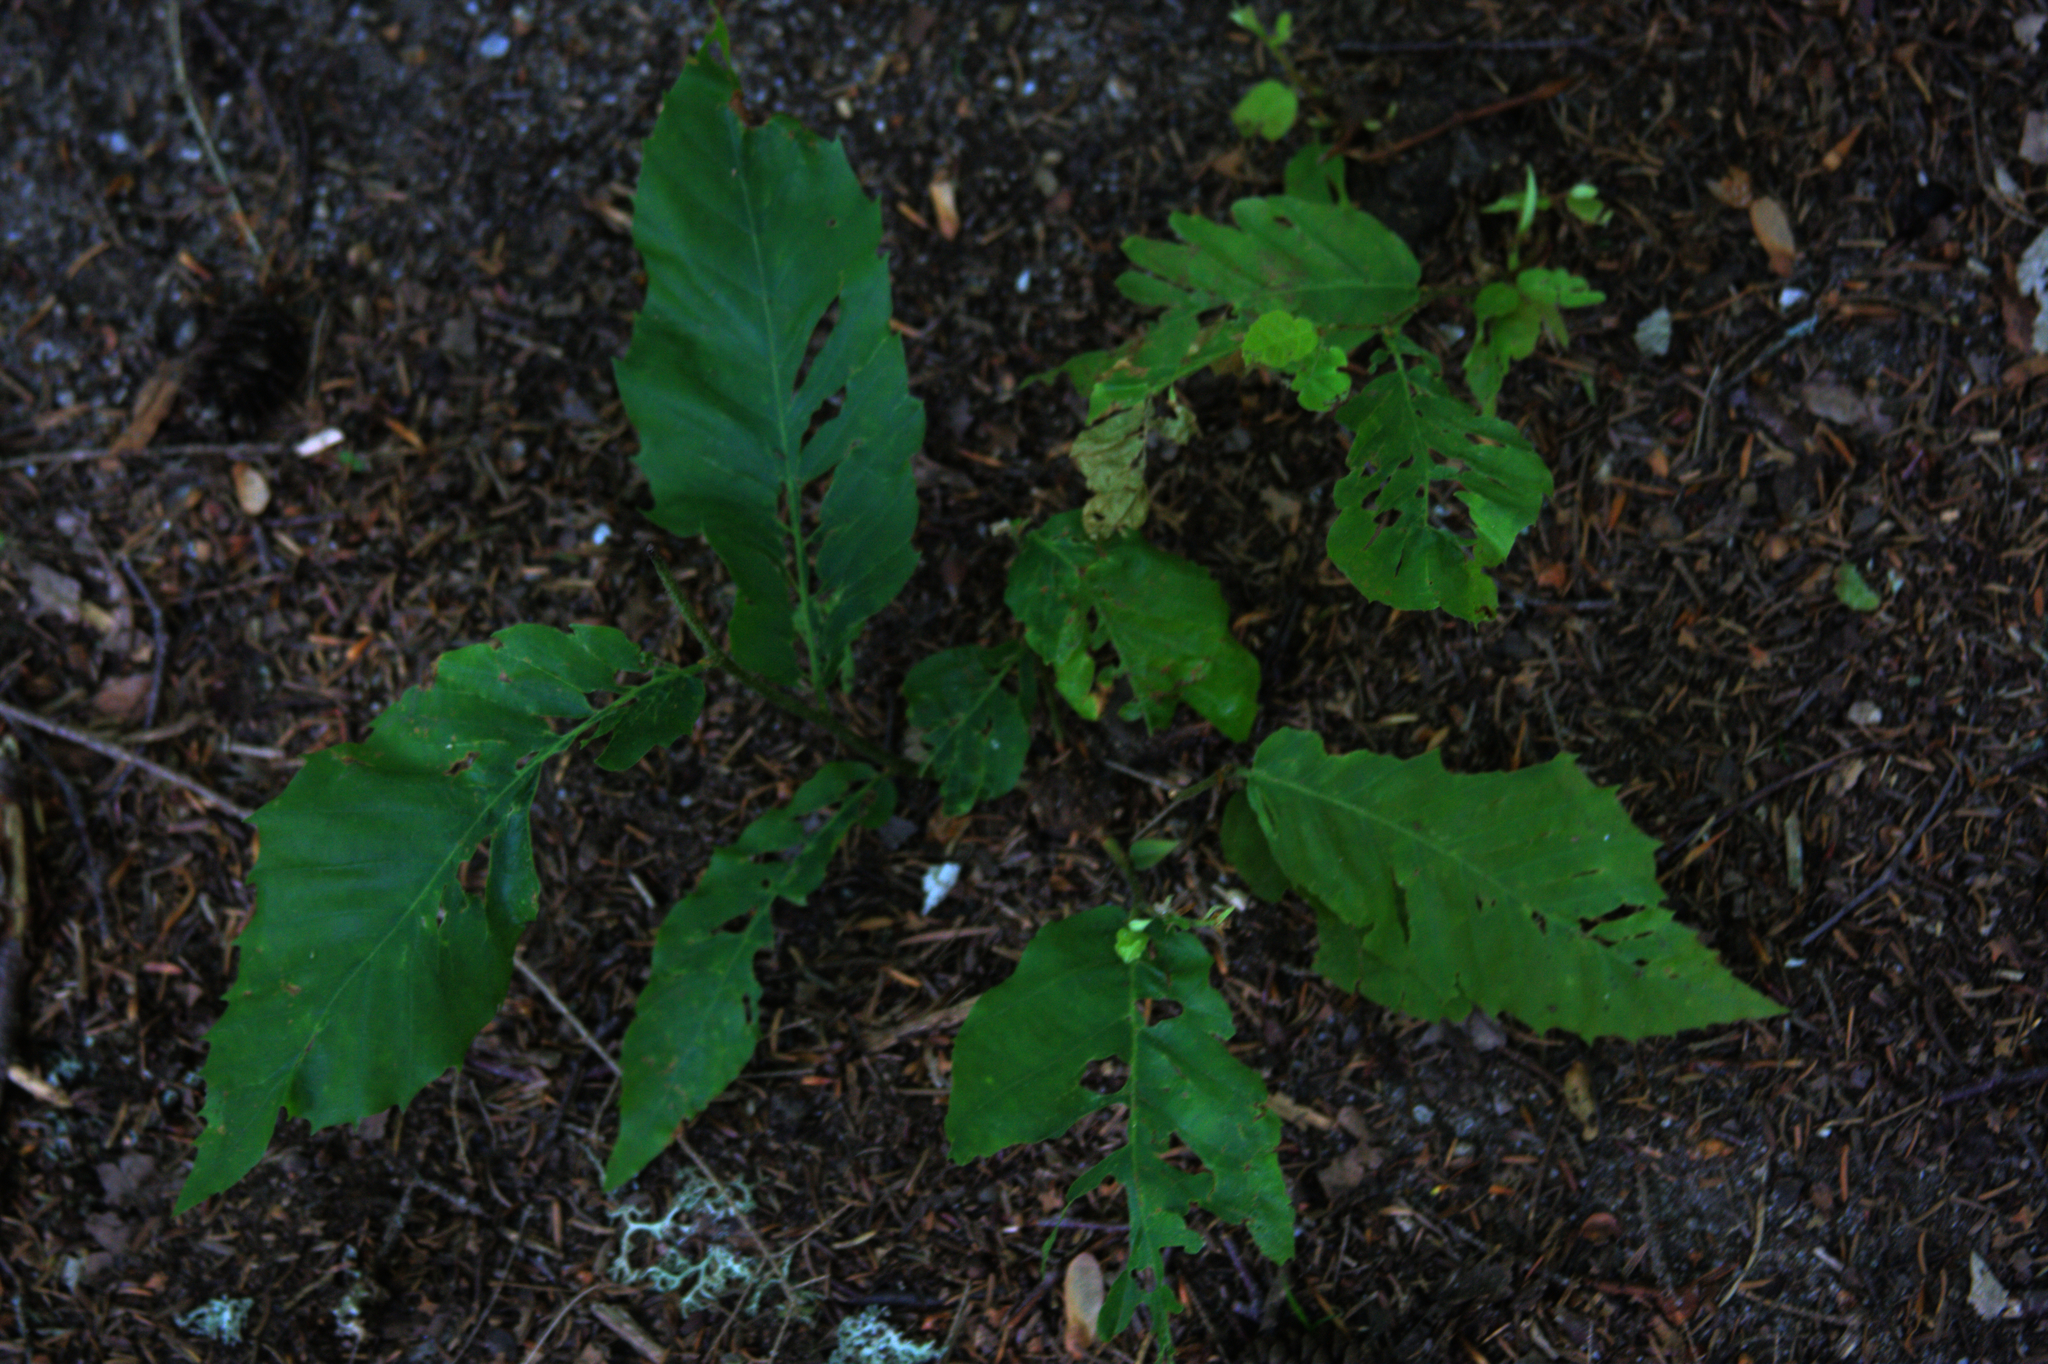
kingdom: Plantae
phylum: Tracheophyta
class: Magnoliopsida
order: Fagales
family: Fagaceae
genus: Castanea
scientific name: Castanea dentata
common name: American chestnut
